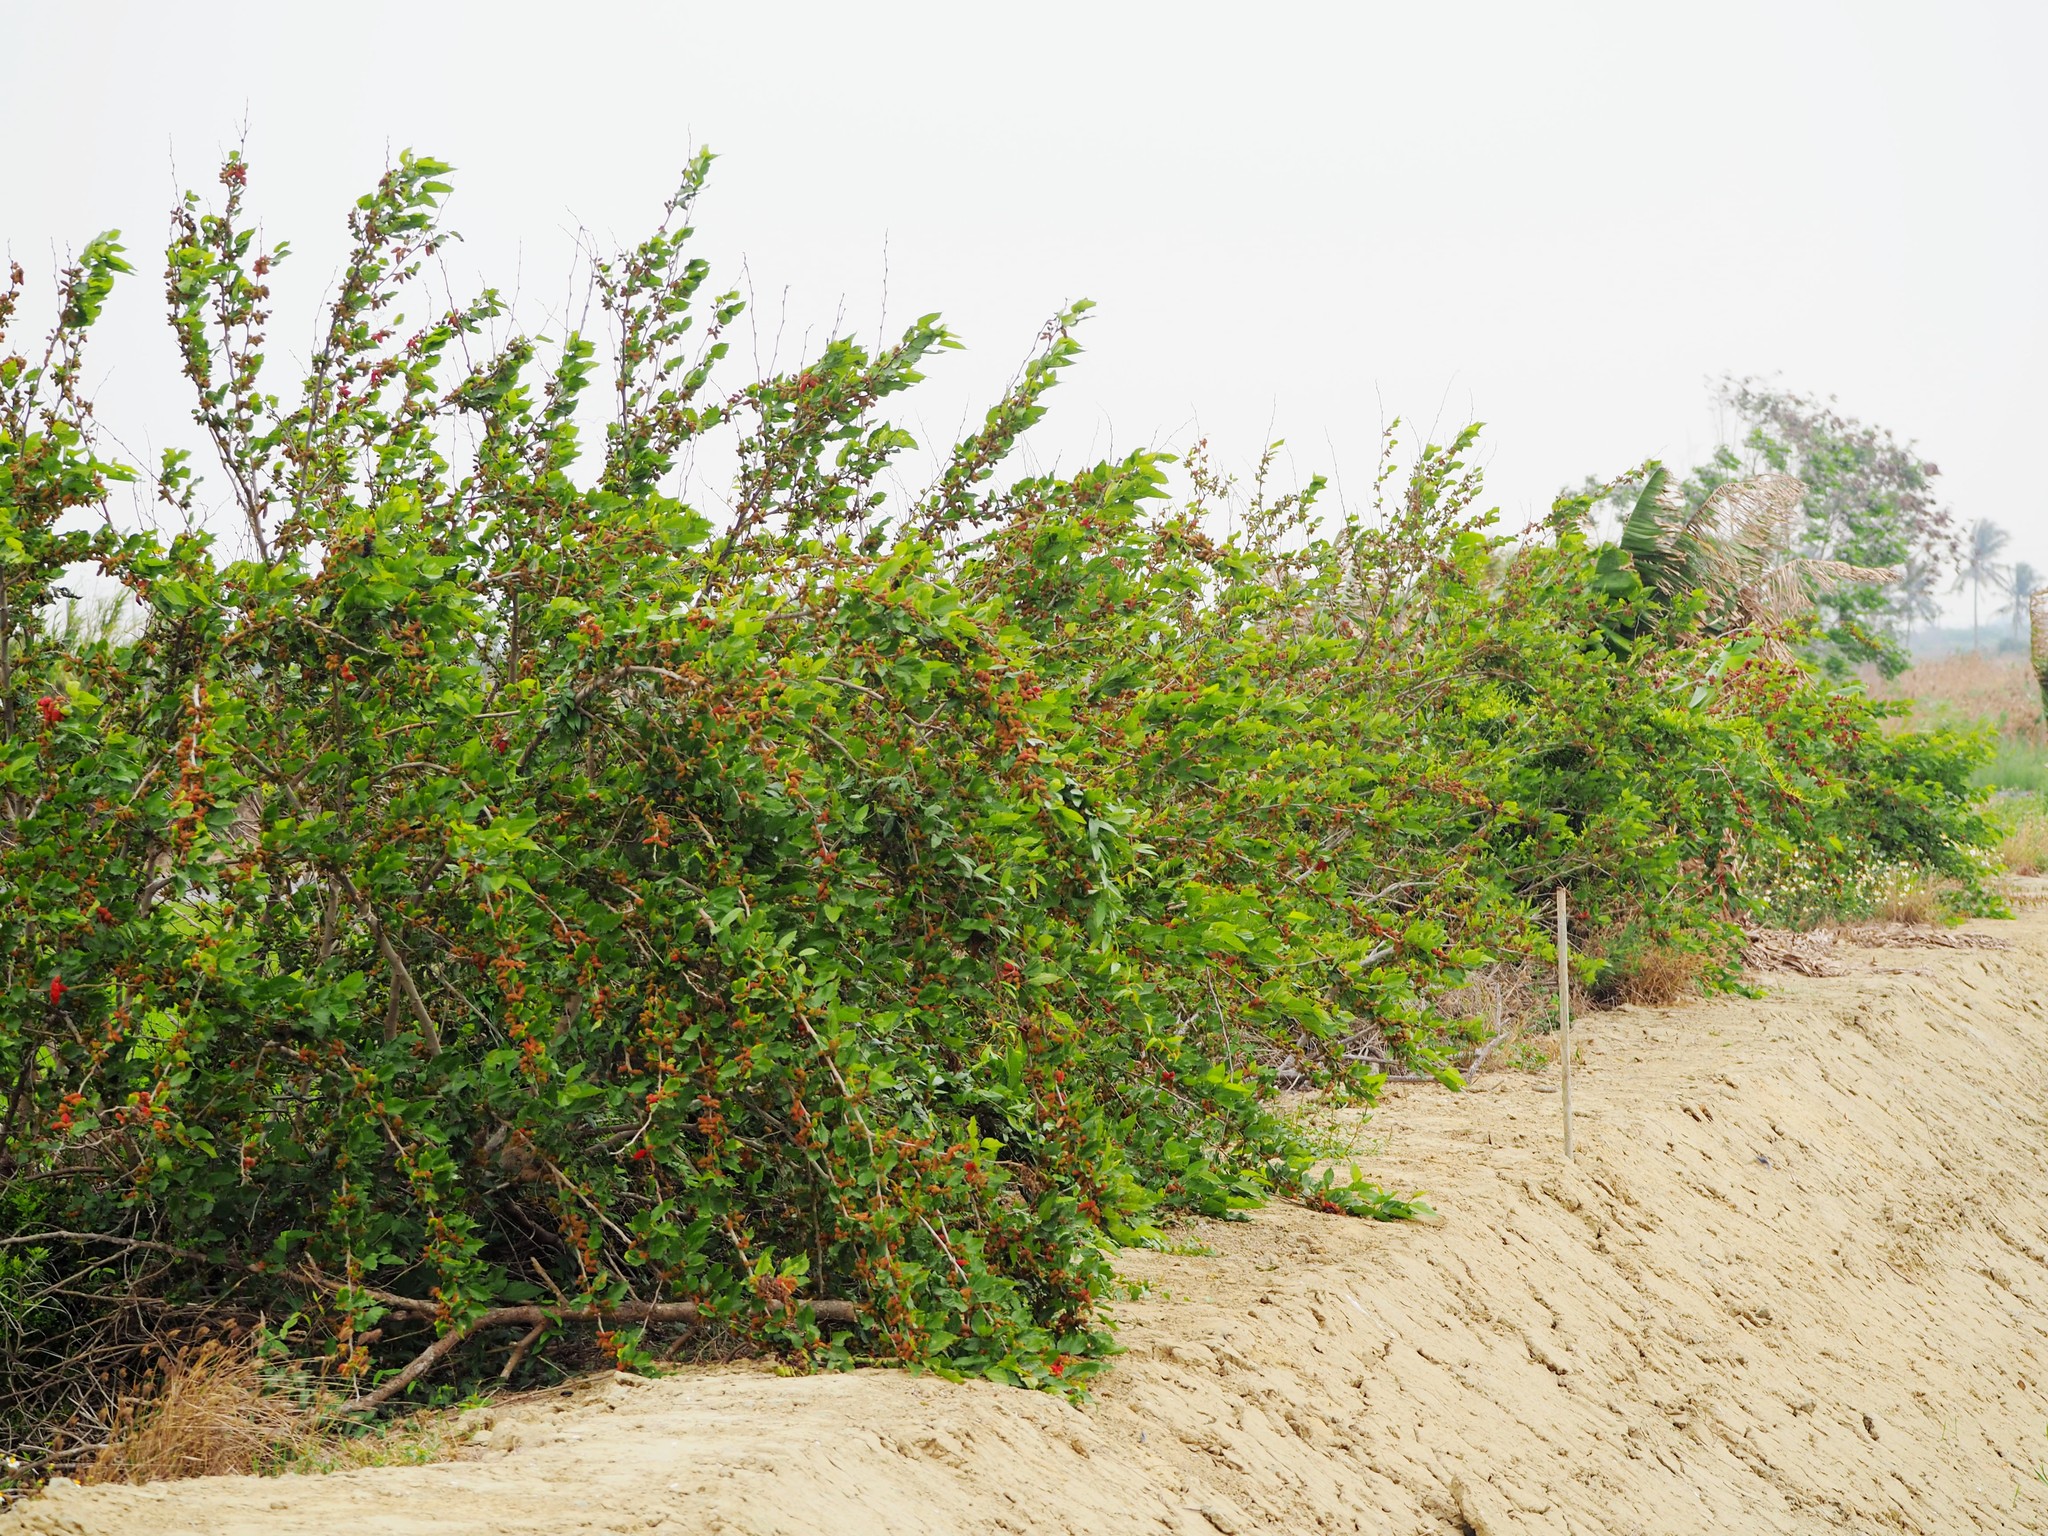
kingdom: Plantae
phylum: Tracheophyta
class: Magnoliopsida
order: Rosales
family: Moraceae
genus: Morus
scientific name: Morus alba
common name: White mulberry
